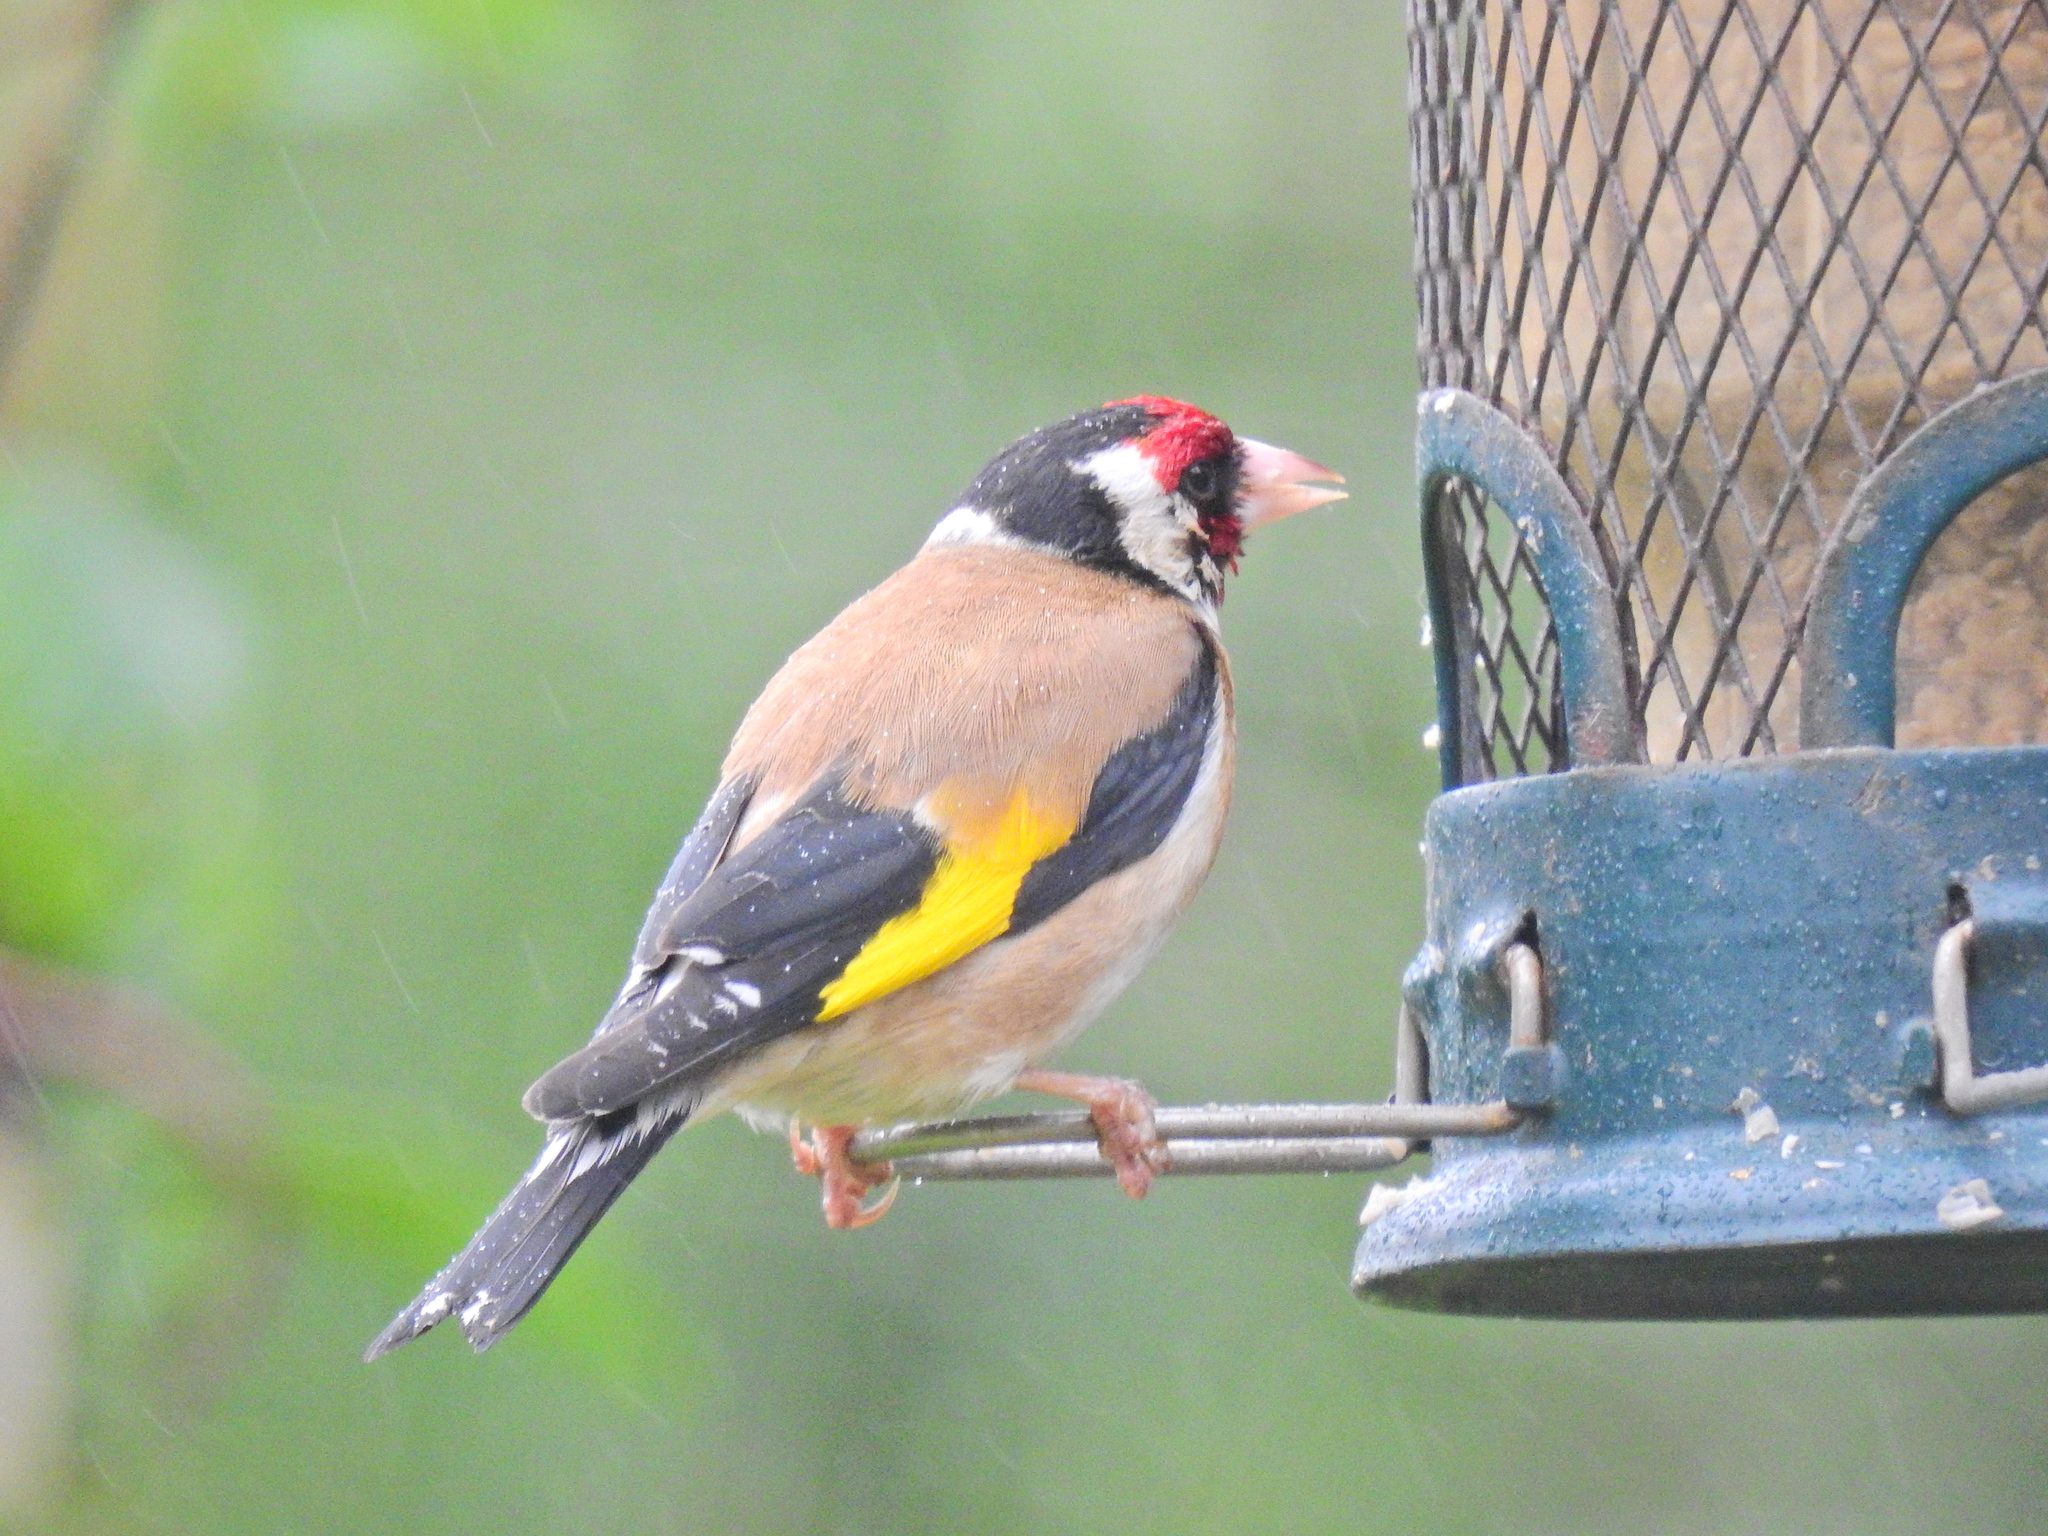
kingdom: Animalia
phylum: Chordata
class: Aves
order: Passeriformes
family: Fringillidae
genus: Carduelis
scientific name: Carduelis carduelis
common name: European goldfinch
